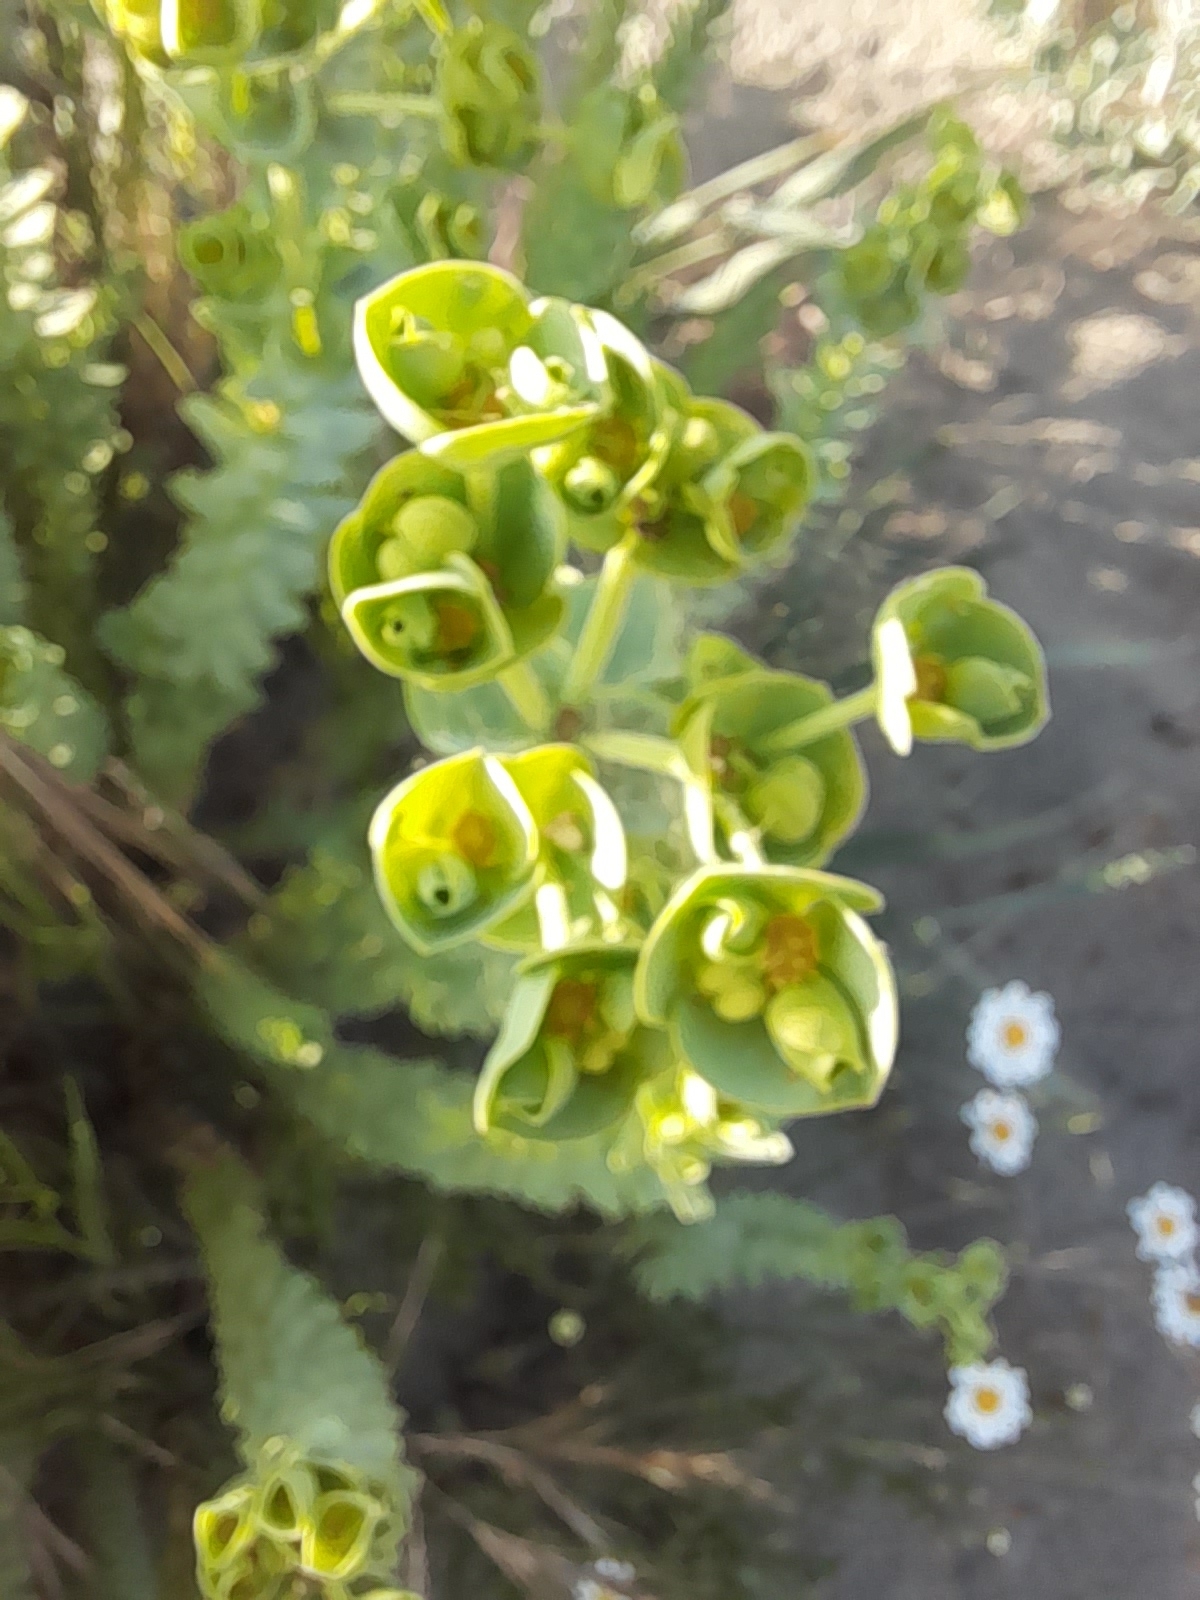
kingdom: Plantae
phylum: Tracheophyta
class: Magnoliopsida
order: Malpighiales
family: Euphorbiaceae
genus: Euphorbia
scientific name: Euphorbia paralias
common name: Sea spurge
